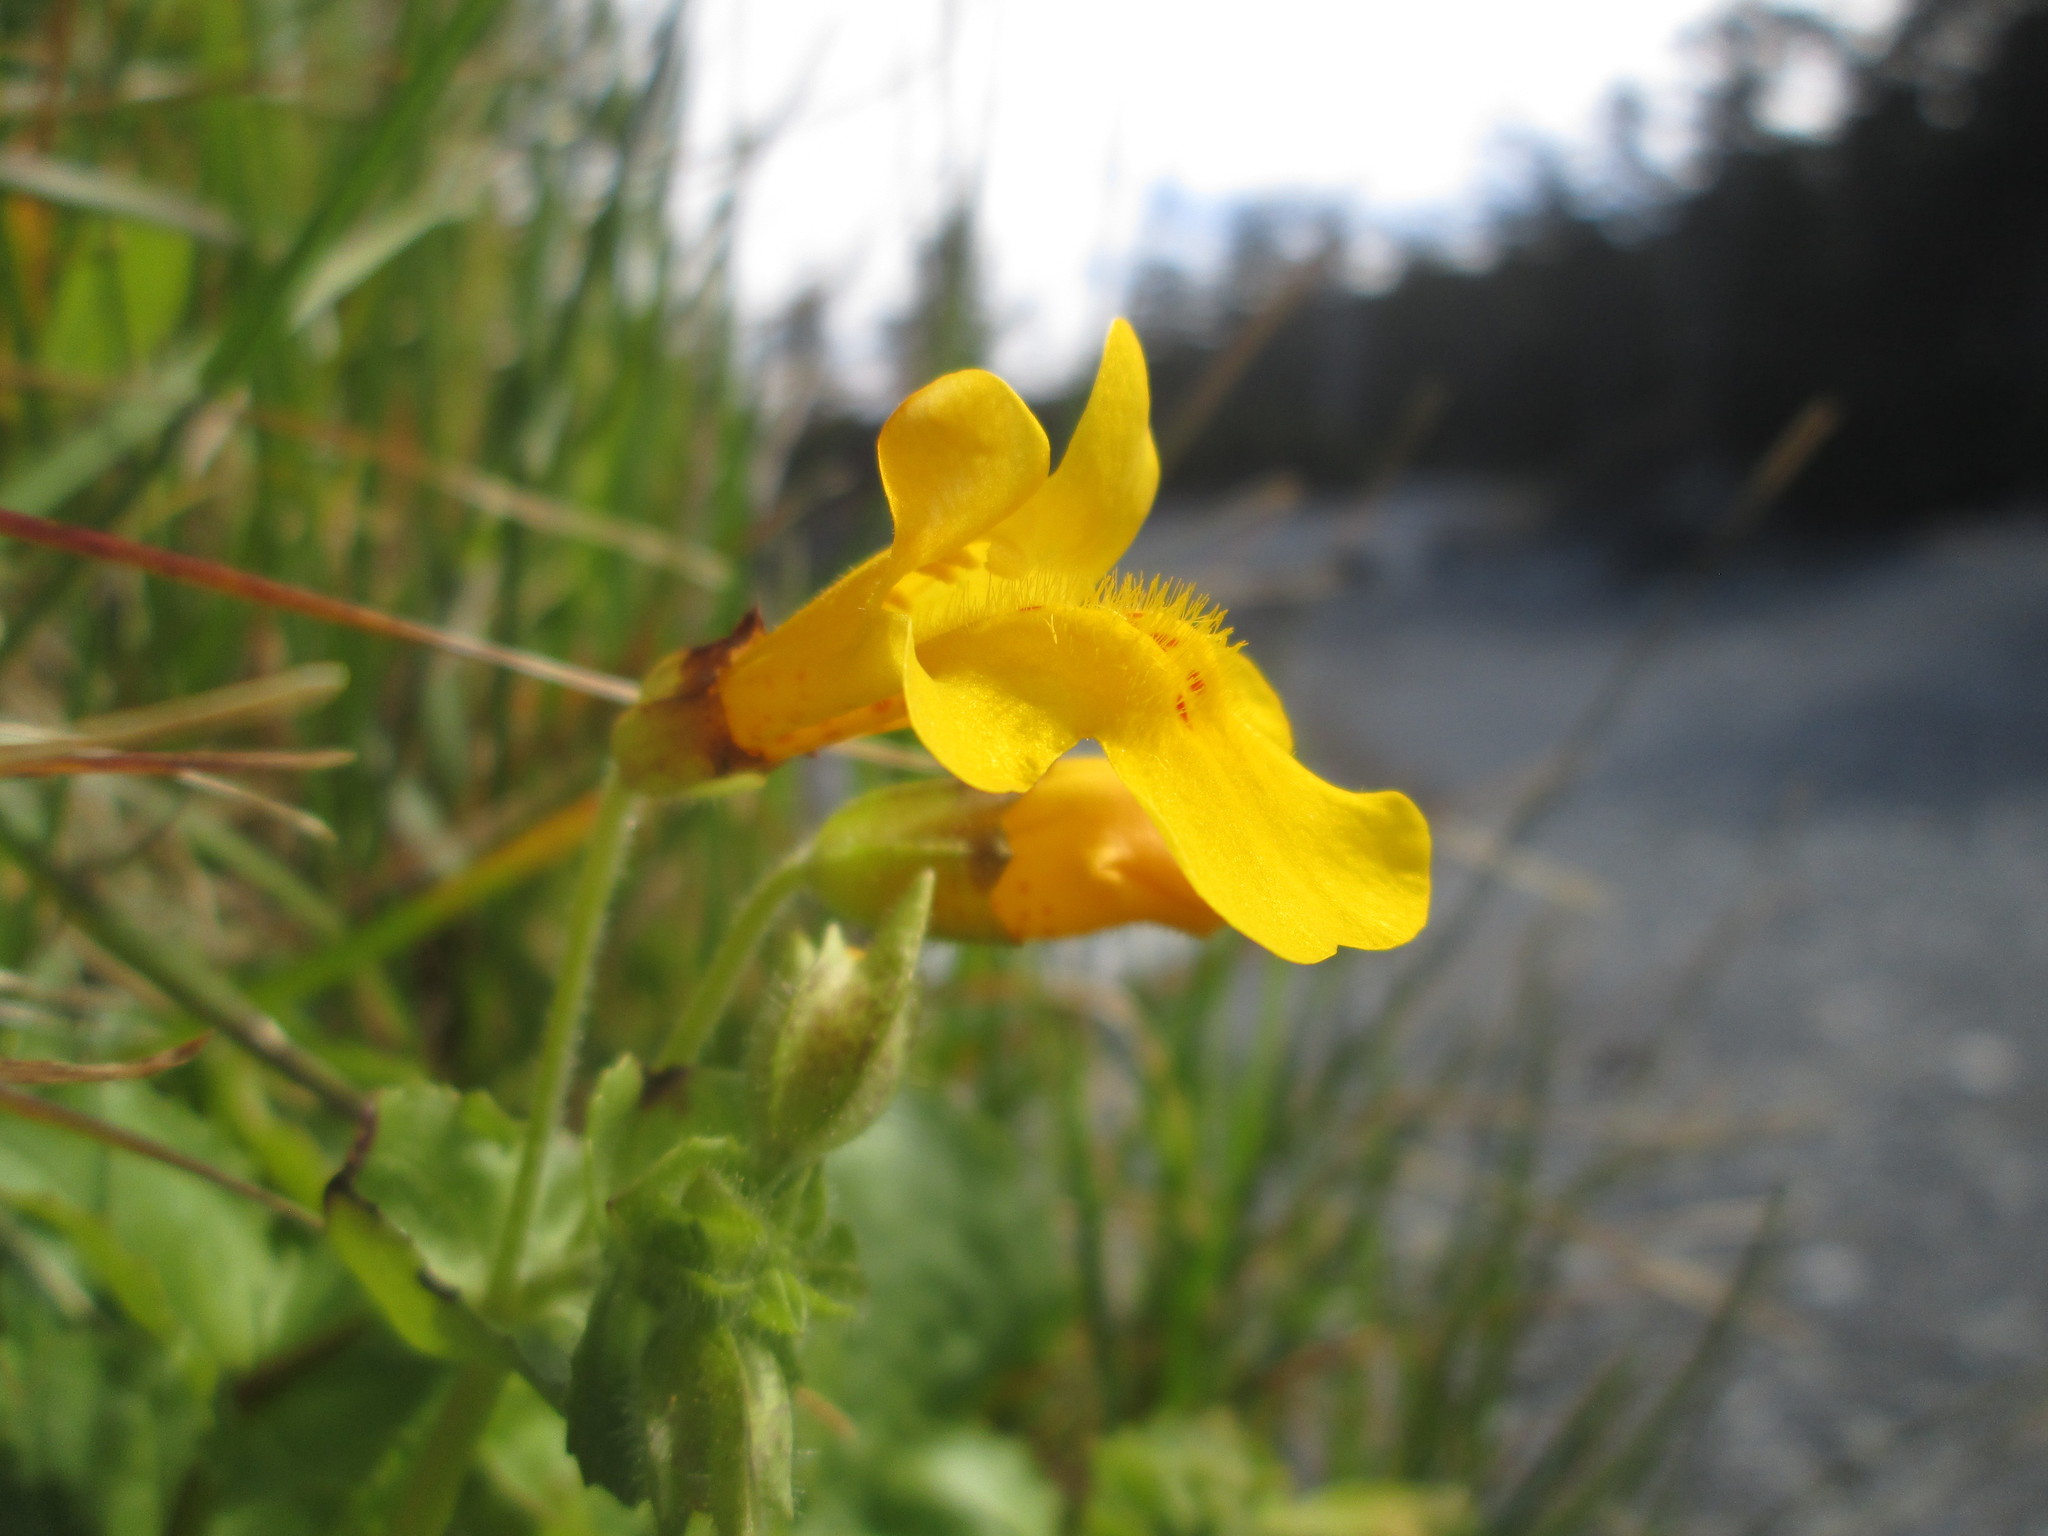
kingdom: Plantae
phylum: Tracheophyta
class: Magnoliopsida
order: Lamiales
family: Phrymaceae
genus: Erythranthe
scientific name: Erythranthe guttata
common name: Monkeyflower
